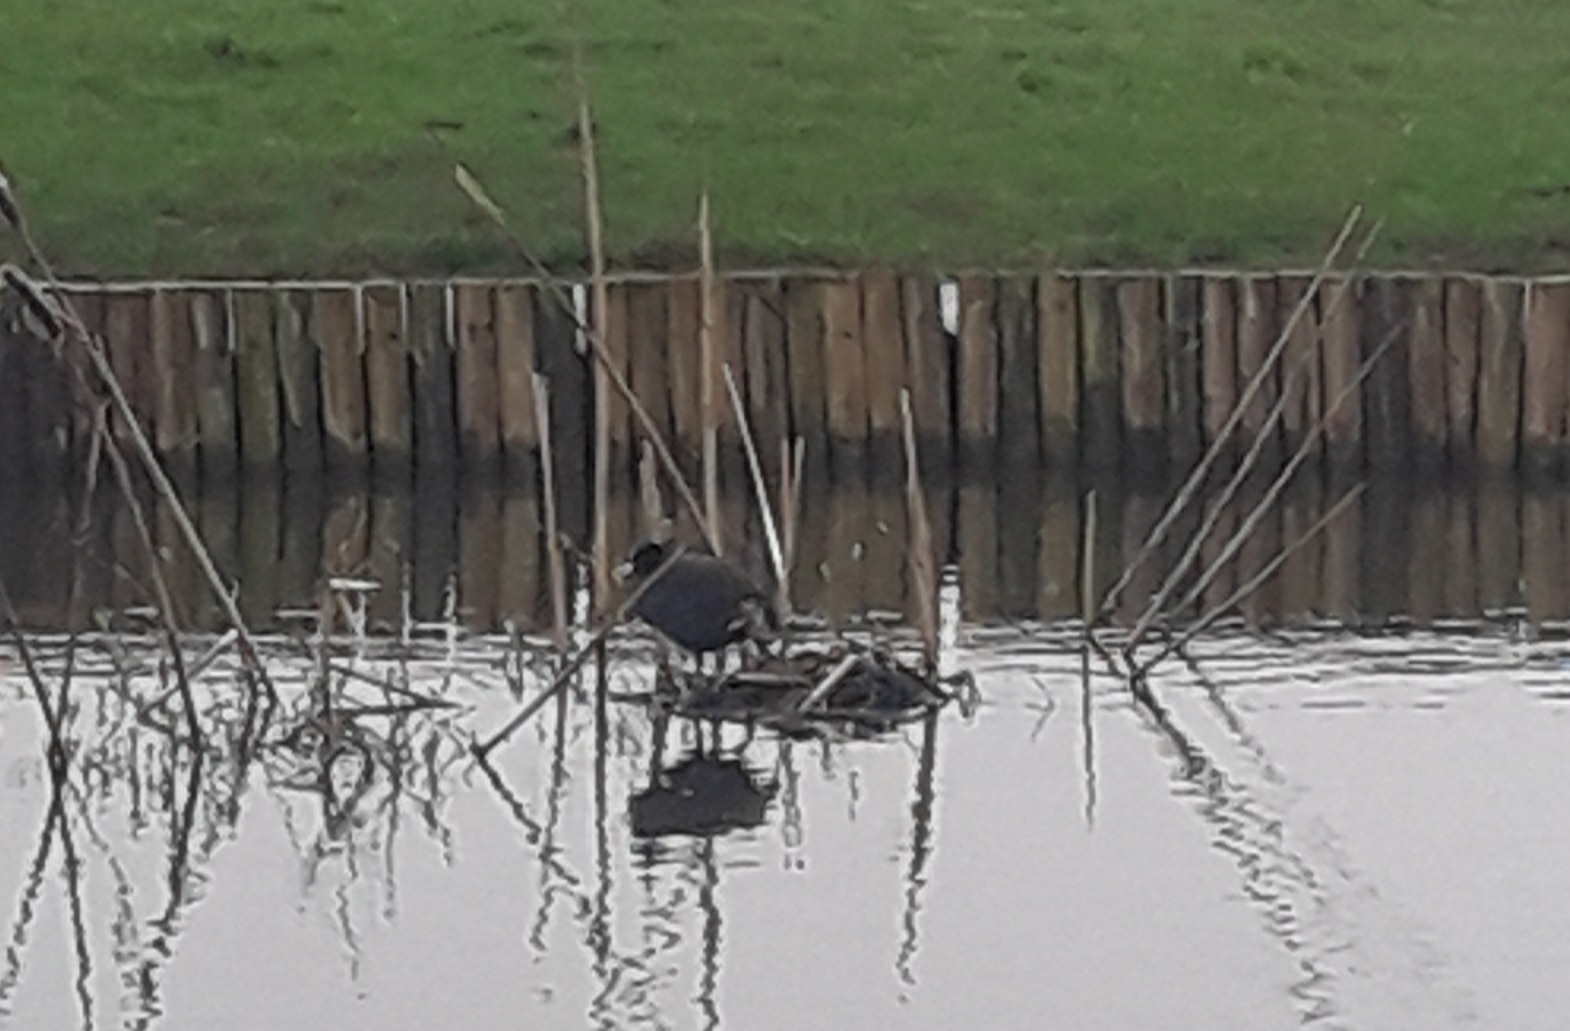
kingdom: Animalia
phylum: Chordata
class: Aves
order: Gruiformes
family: Rallidae
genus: Fulica
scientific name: Fulica atra
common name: Eurasian coot
